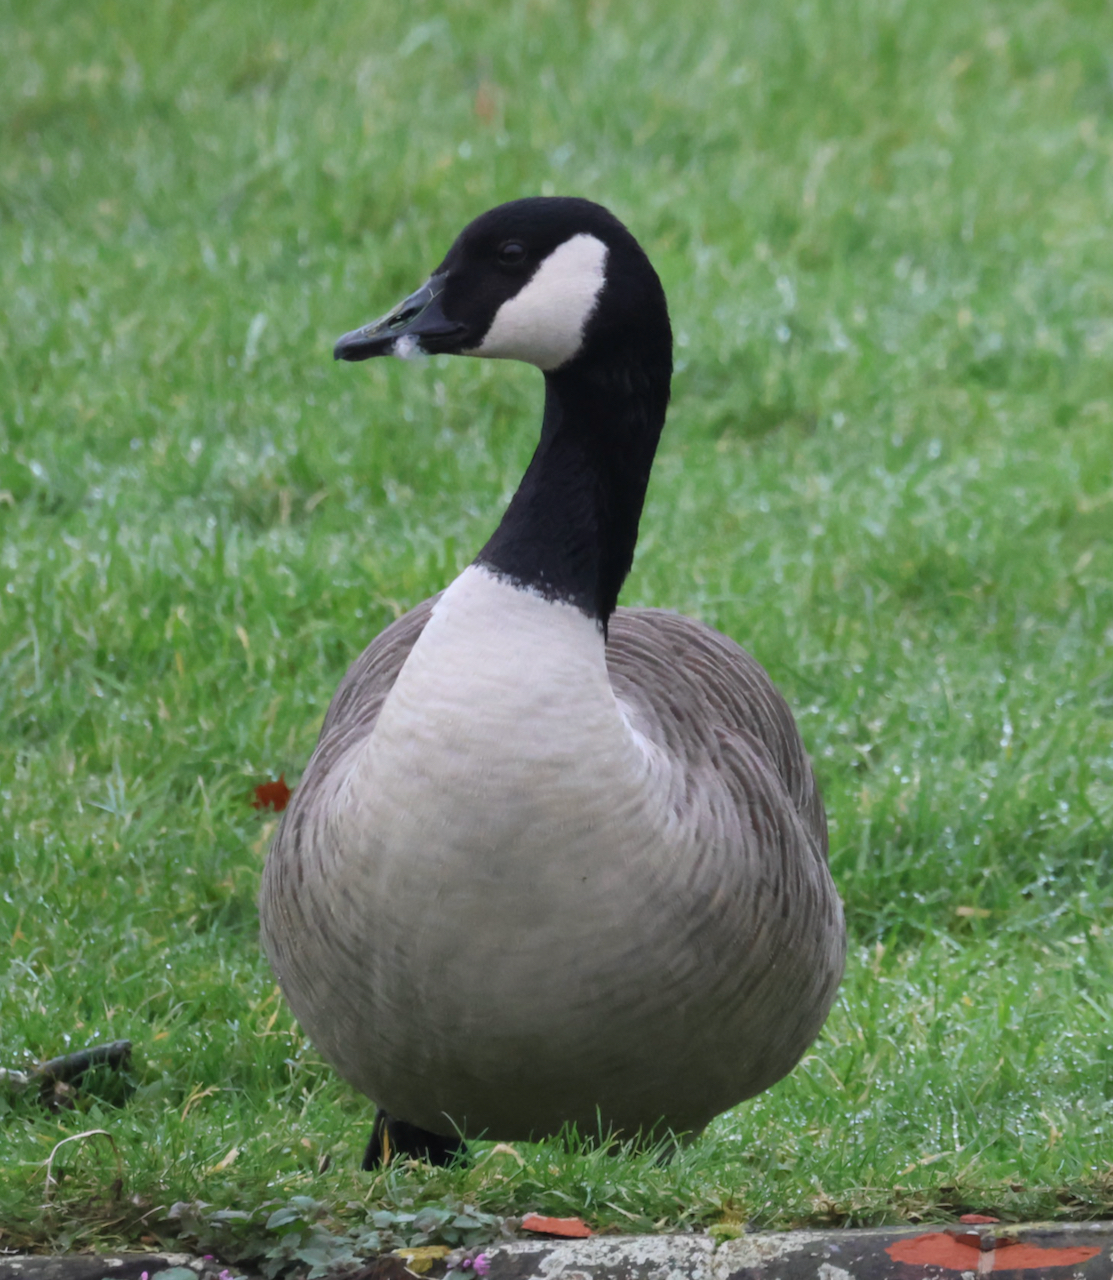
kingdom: Animalia
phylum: Chordata
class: Aves
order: Anseriformes
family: Anatidae
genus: Branta
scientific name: Branta canadensis
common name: Canada goose
